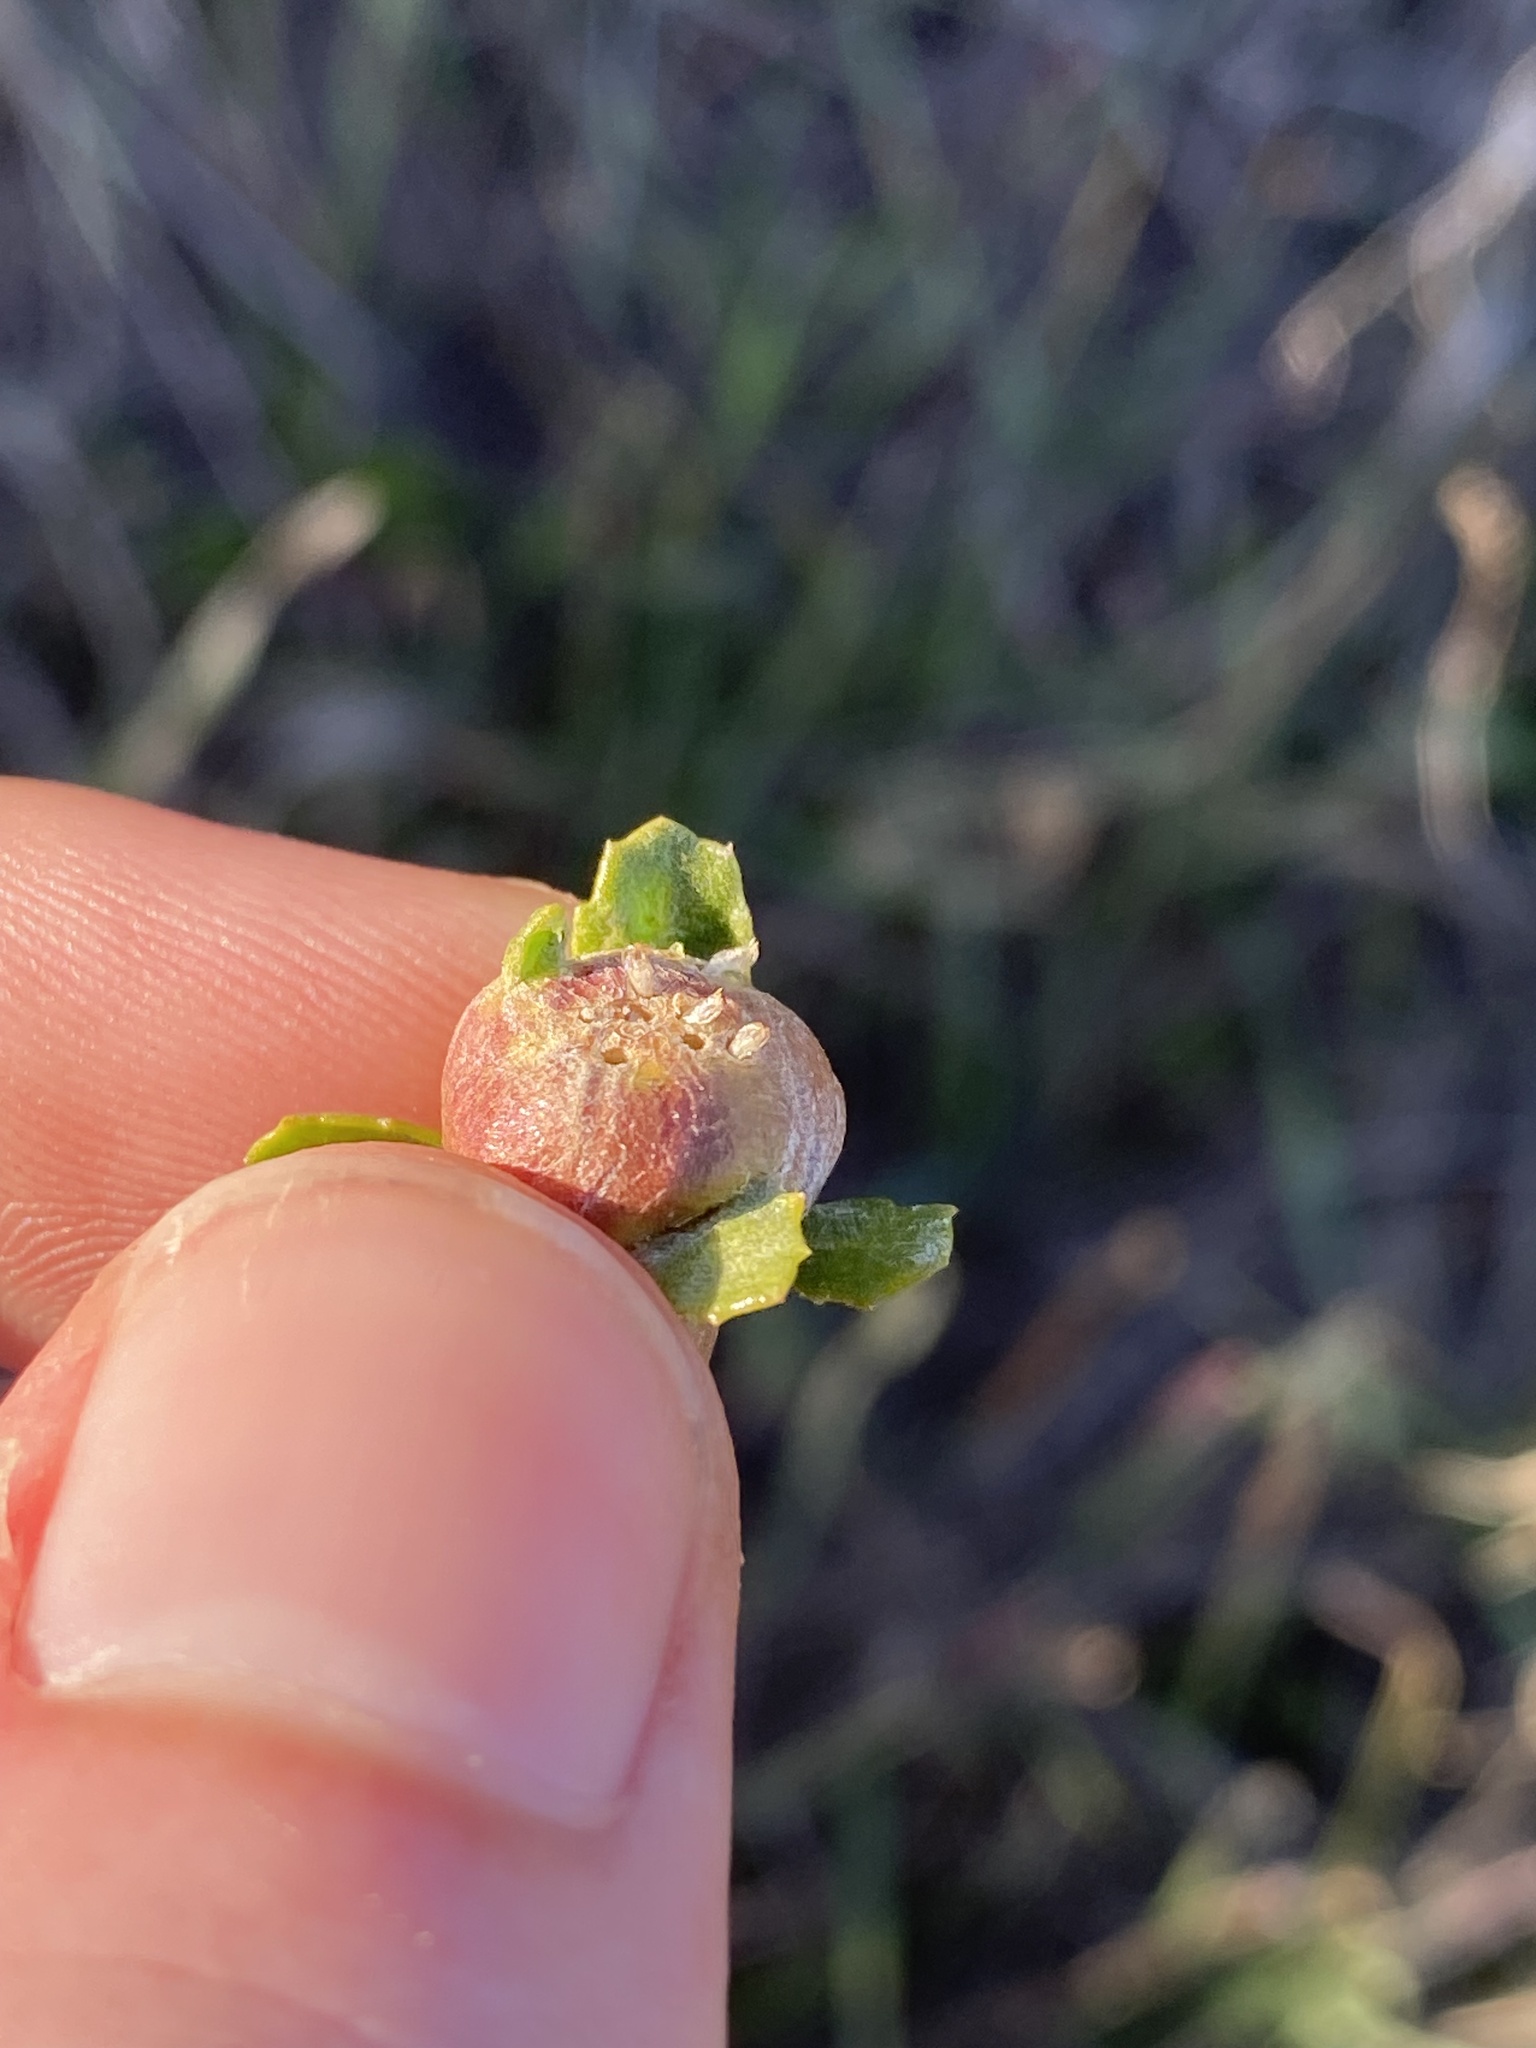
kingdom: Animalia
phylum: Arthropoda
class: Insecta
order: Diptera
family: Cecidomyiidae
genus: Rhopalomyia
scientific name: Rhopalomyia californica
